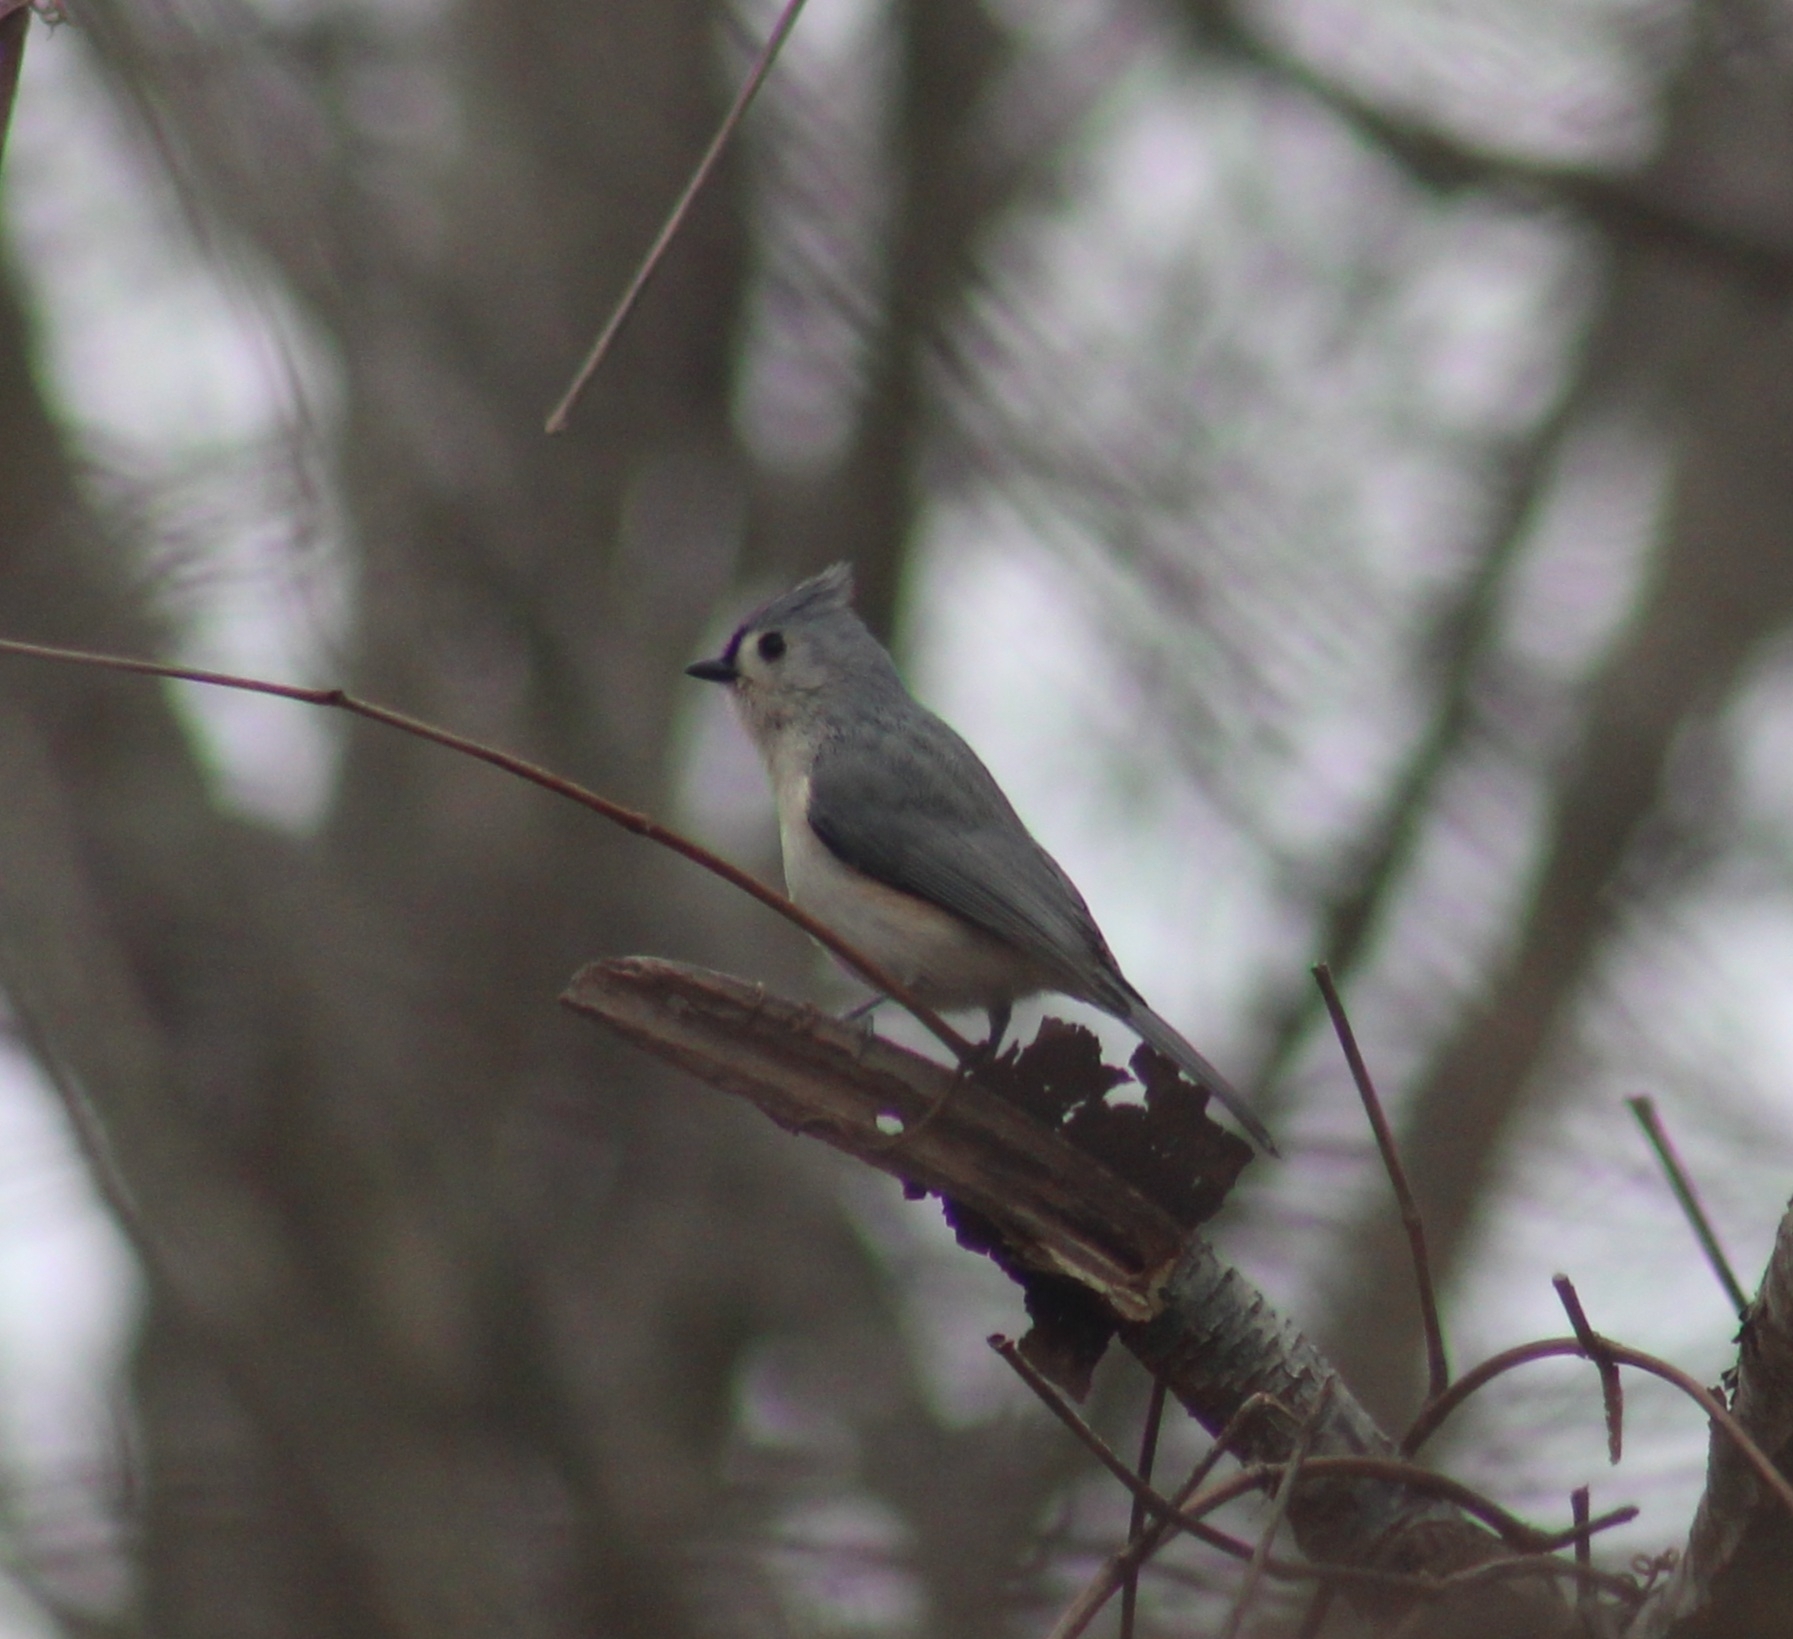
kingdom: Animalia
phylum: Chordata
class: Aves
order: Passeriformes
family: Paridae
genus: Baeolophus
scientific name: Baeolophus bicolor
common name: Tufted titmouse
